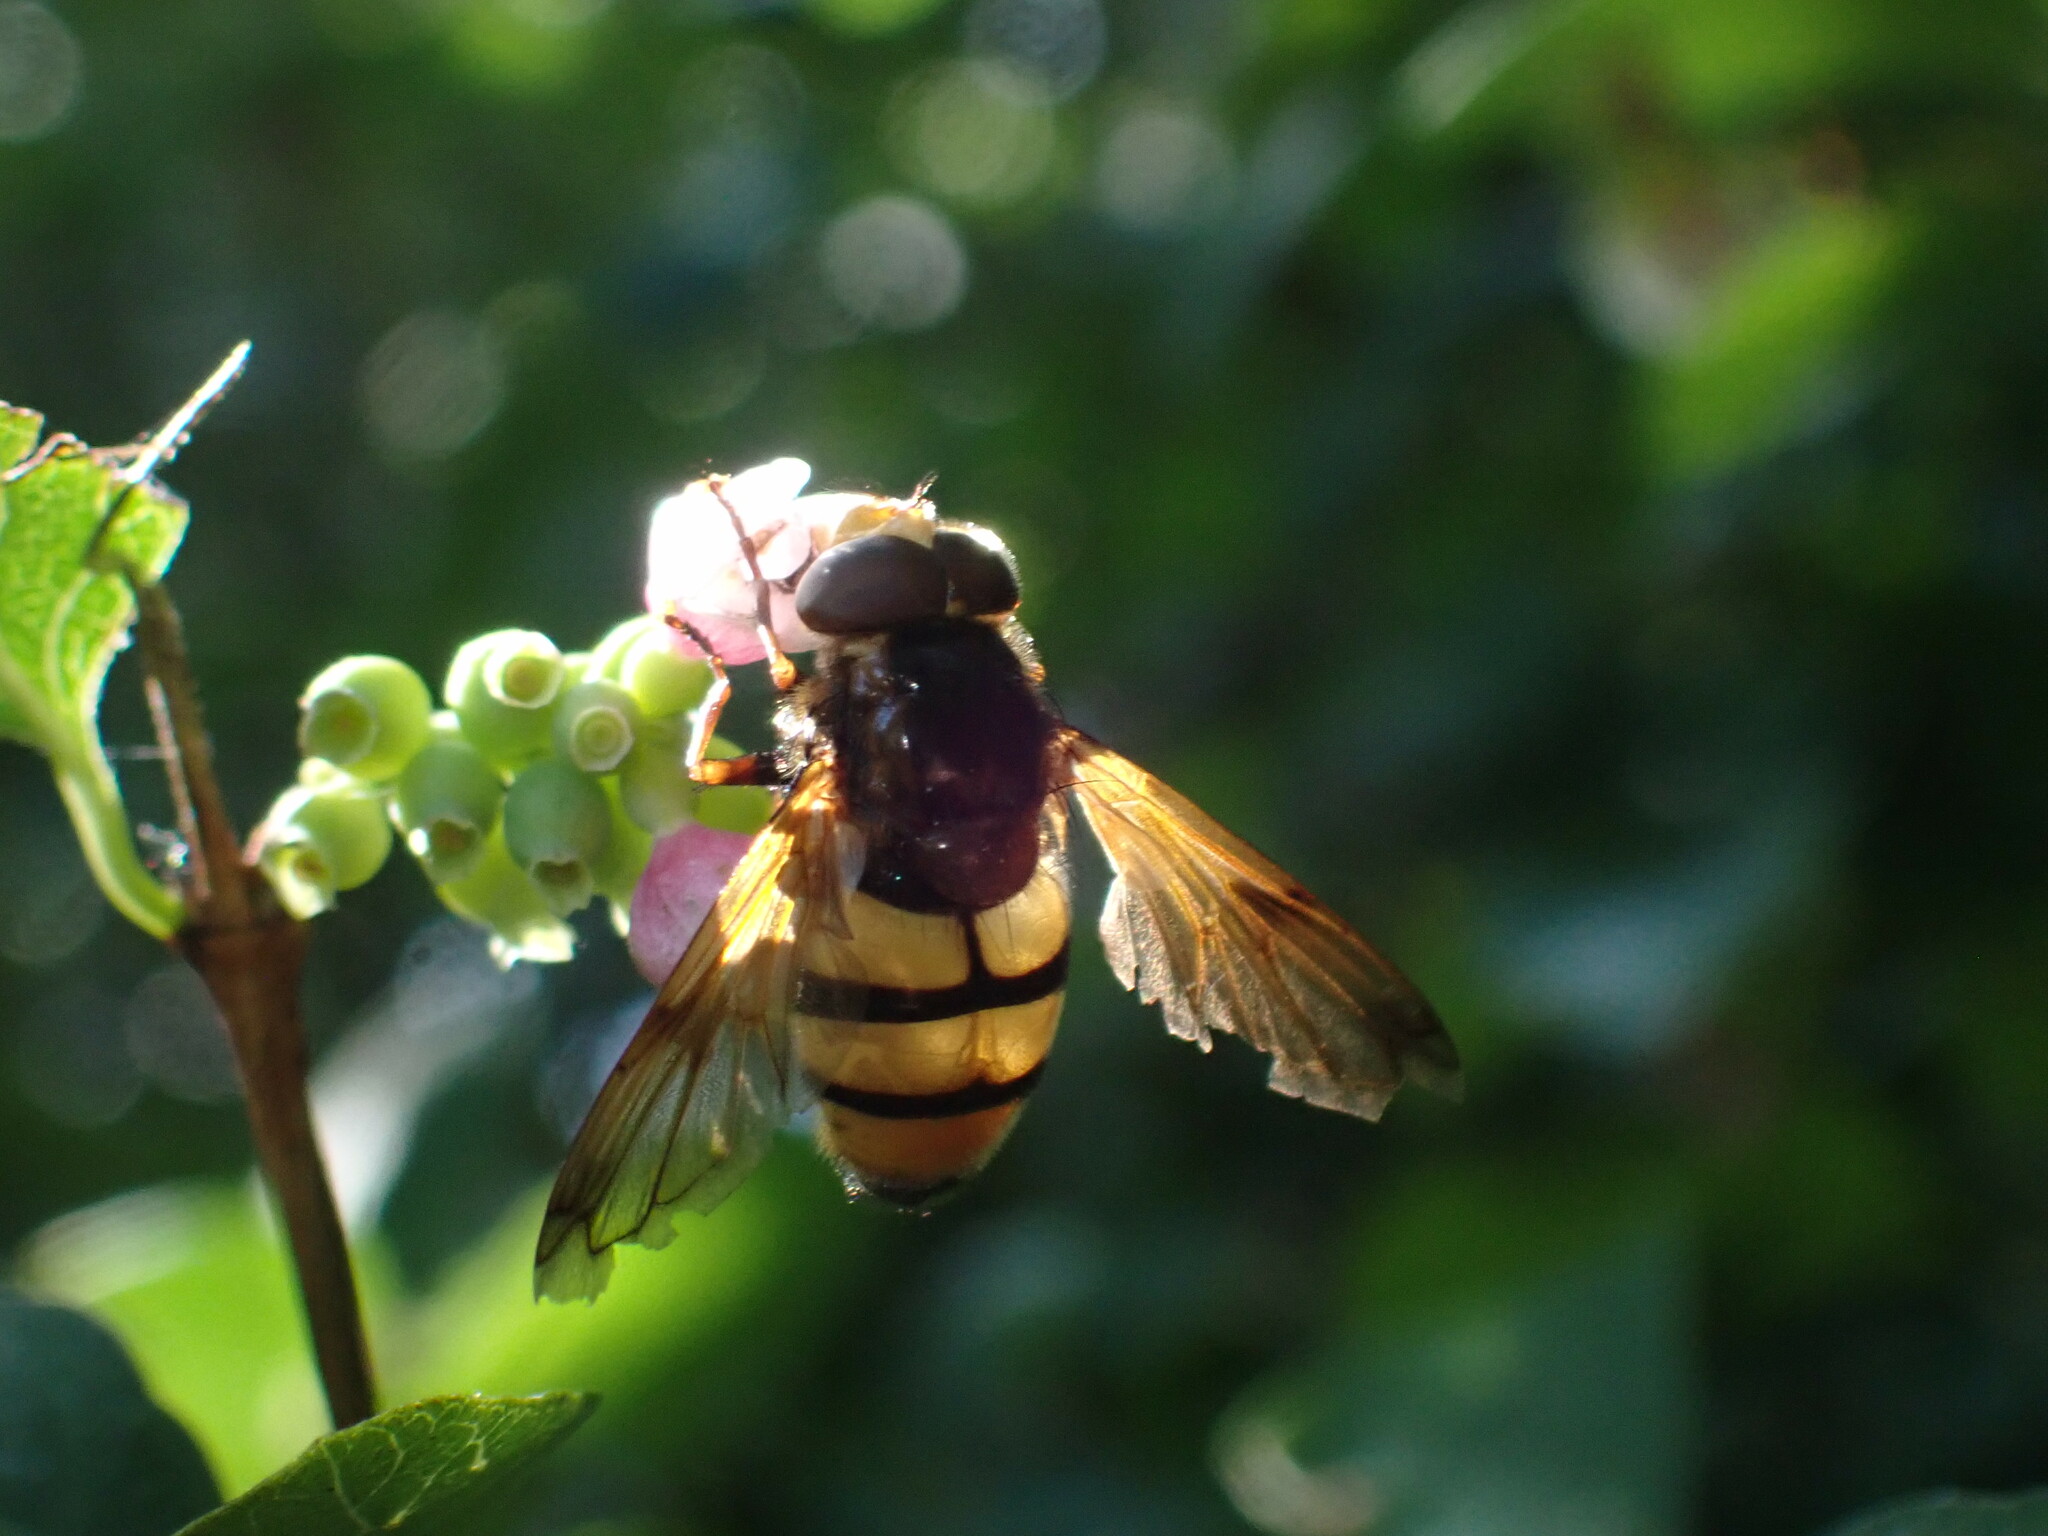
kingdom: Animalia
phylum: Arthropoda
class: Insecta
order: Diptera
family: Syrphidae
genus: Volucella
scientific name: Volucella inanis
